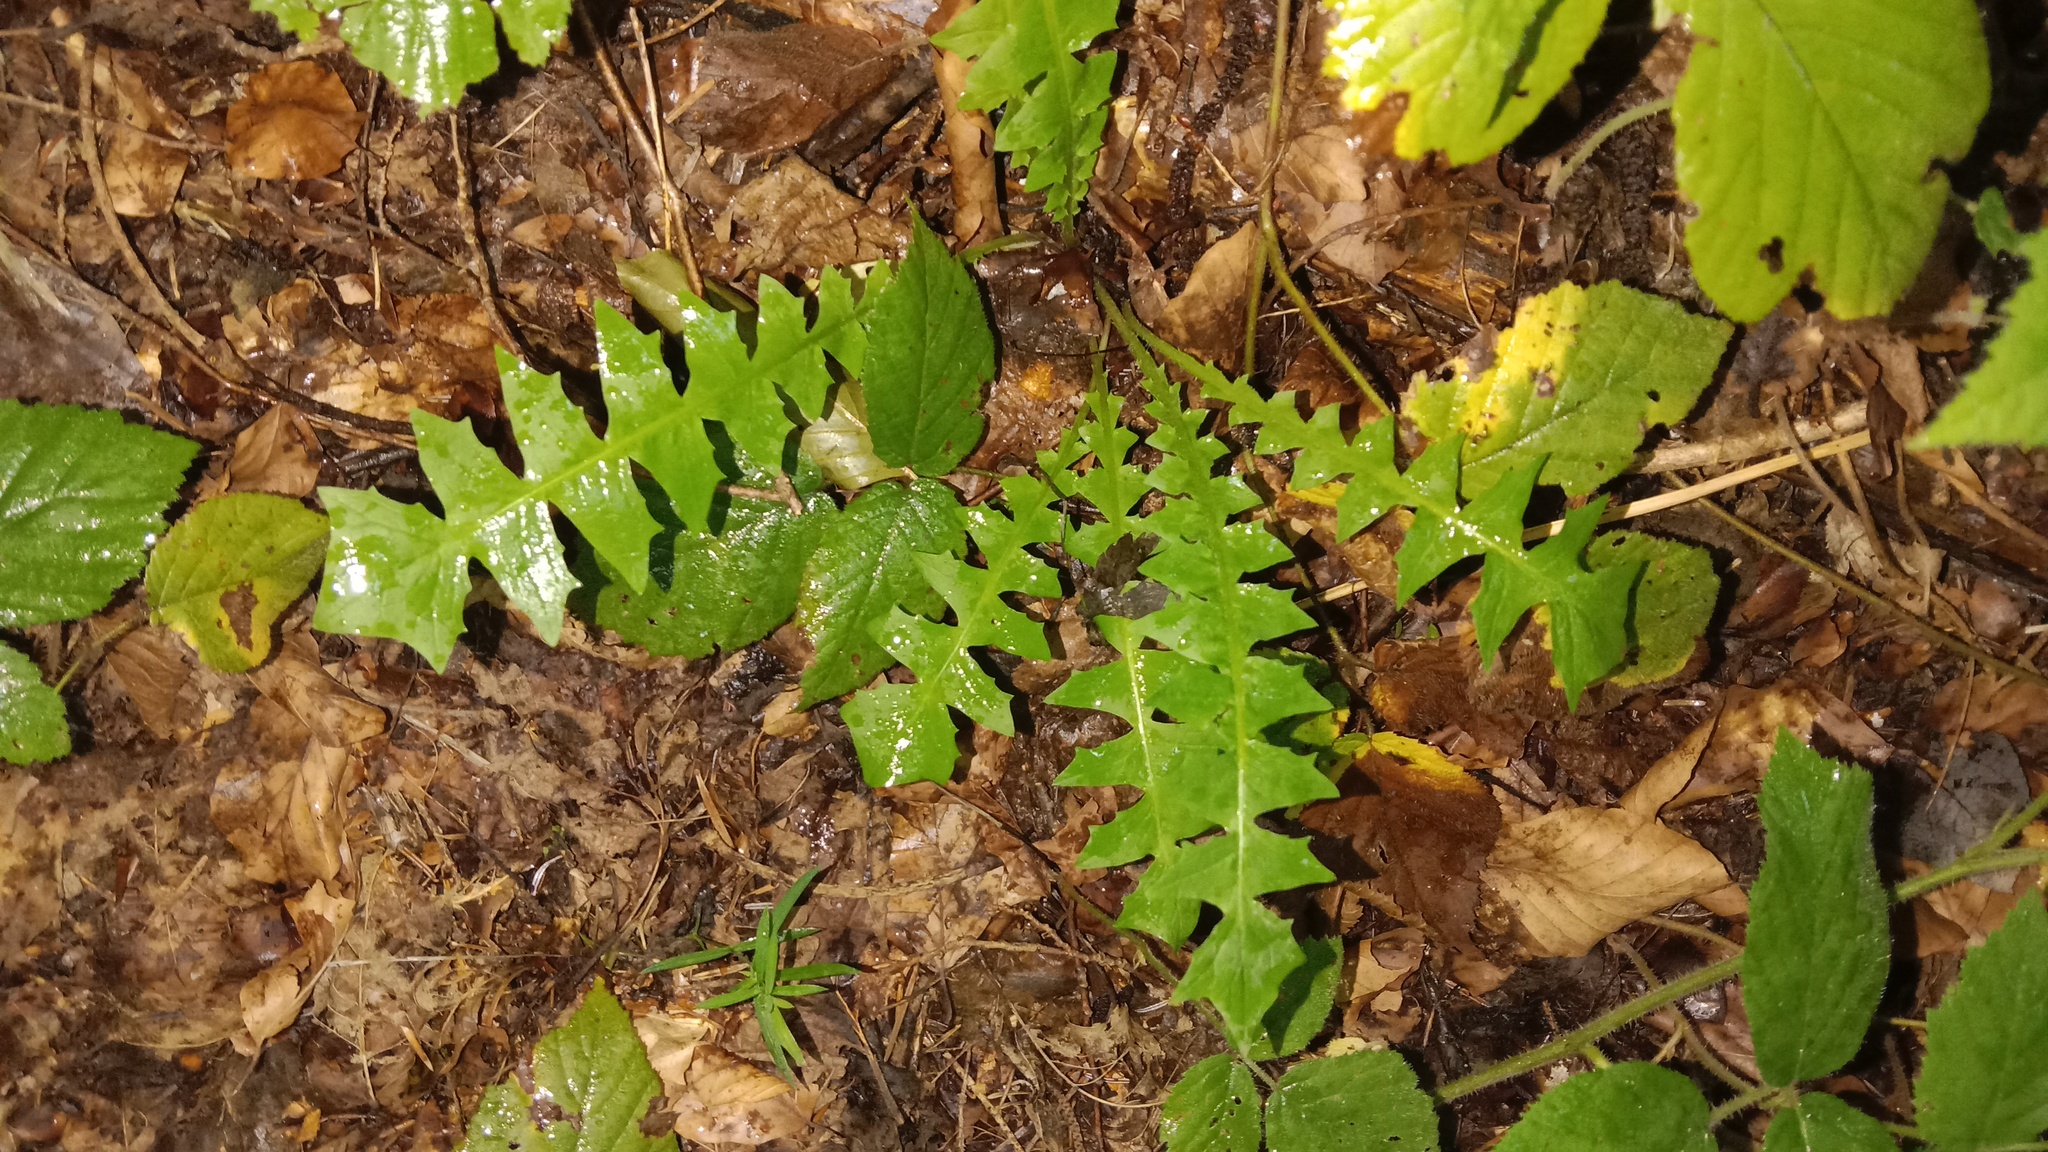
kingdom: Plantae
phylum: Tracheophyta
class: Magnoliopsida
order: Asterales
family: Asteraceae
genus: Aposeris
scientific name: Aposeris foetida
